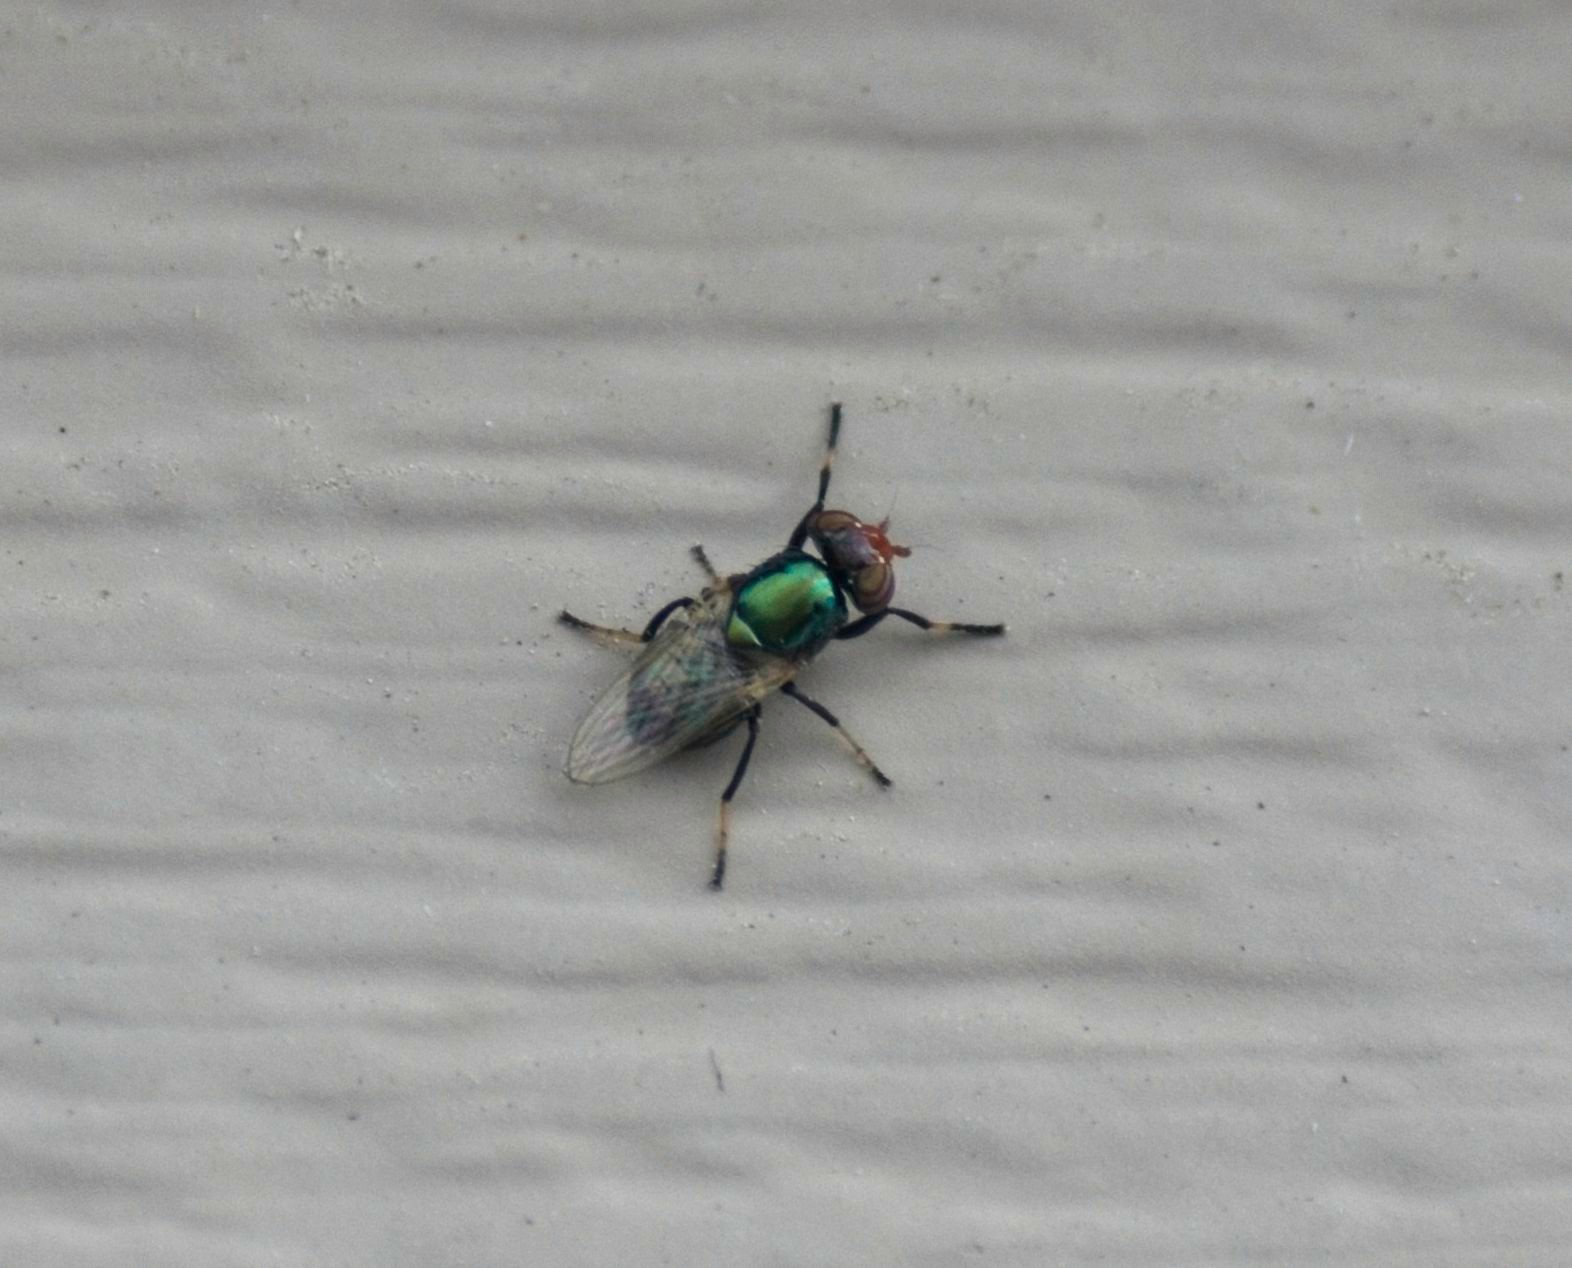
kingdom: Animalia
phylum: Arthropoda
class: Insecta
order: Diptera
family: Ulidiidae
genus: Physiphora
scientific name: Physiphora alceae
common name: Picture-winged fly
